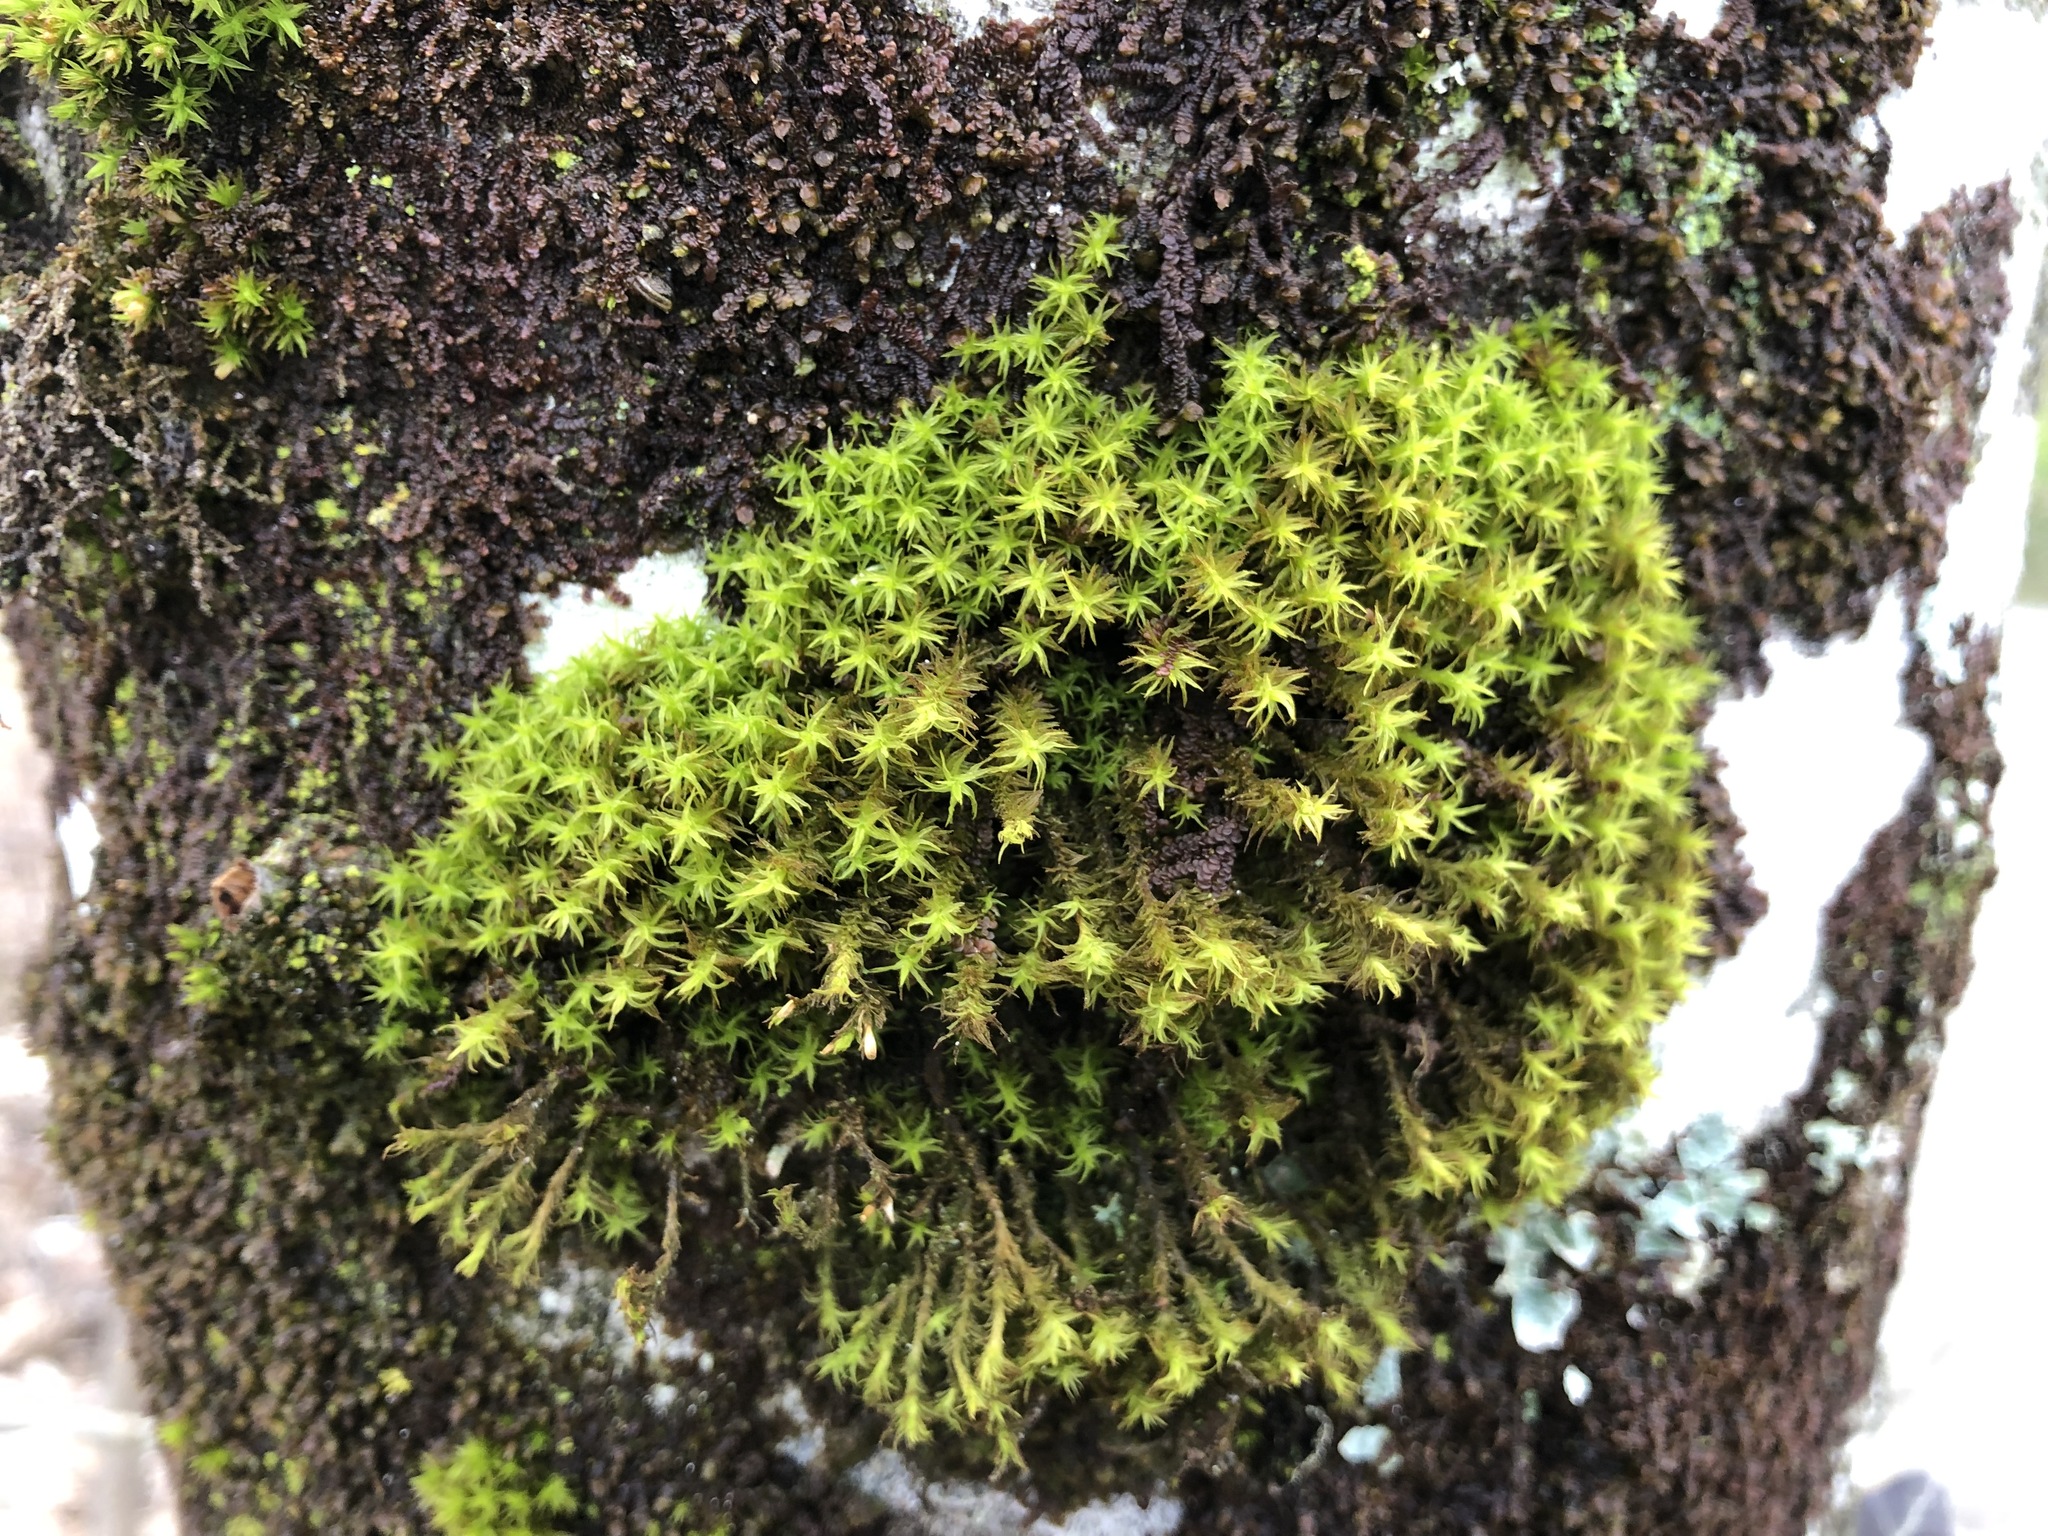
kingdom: Plantae
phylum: Bryophyta
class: Bryopsida
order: Orthotrichales
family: Orthotrichaceae
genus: Pulvigera
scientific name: Pulvigera lyellii
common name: Lyell's bristle-moss
